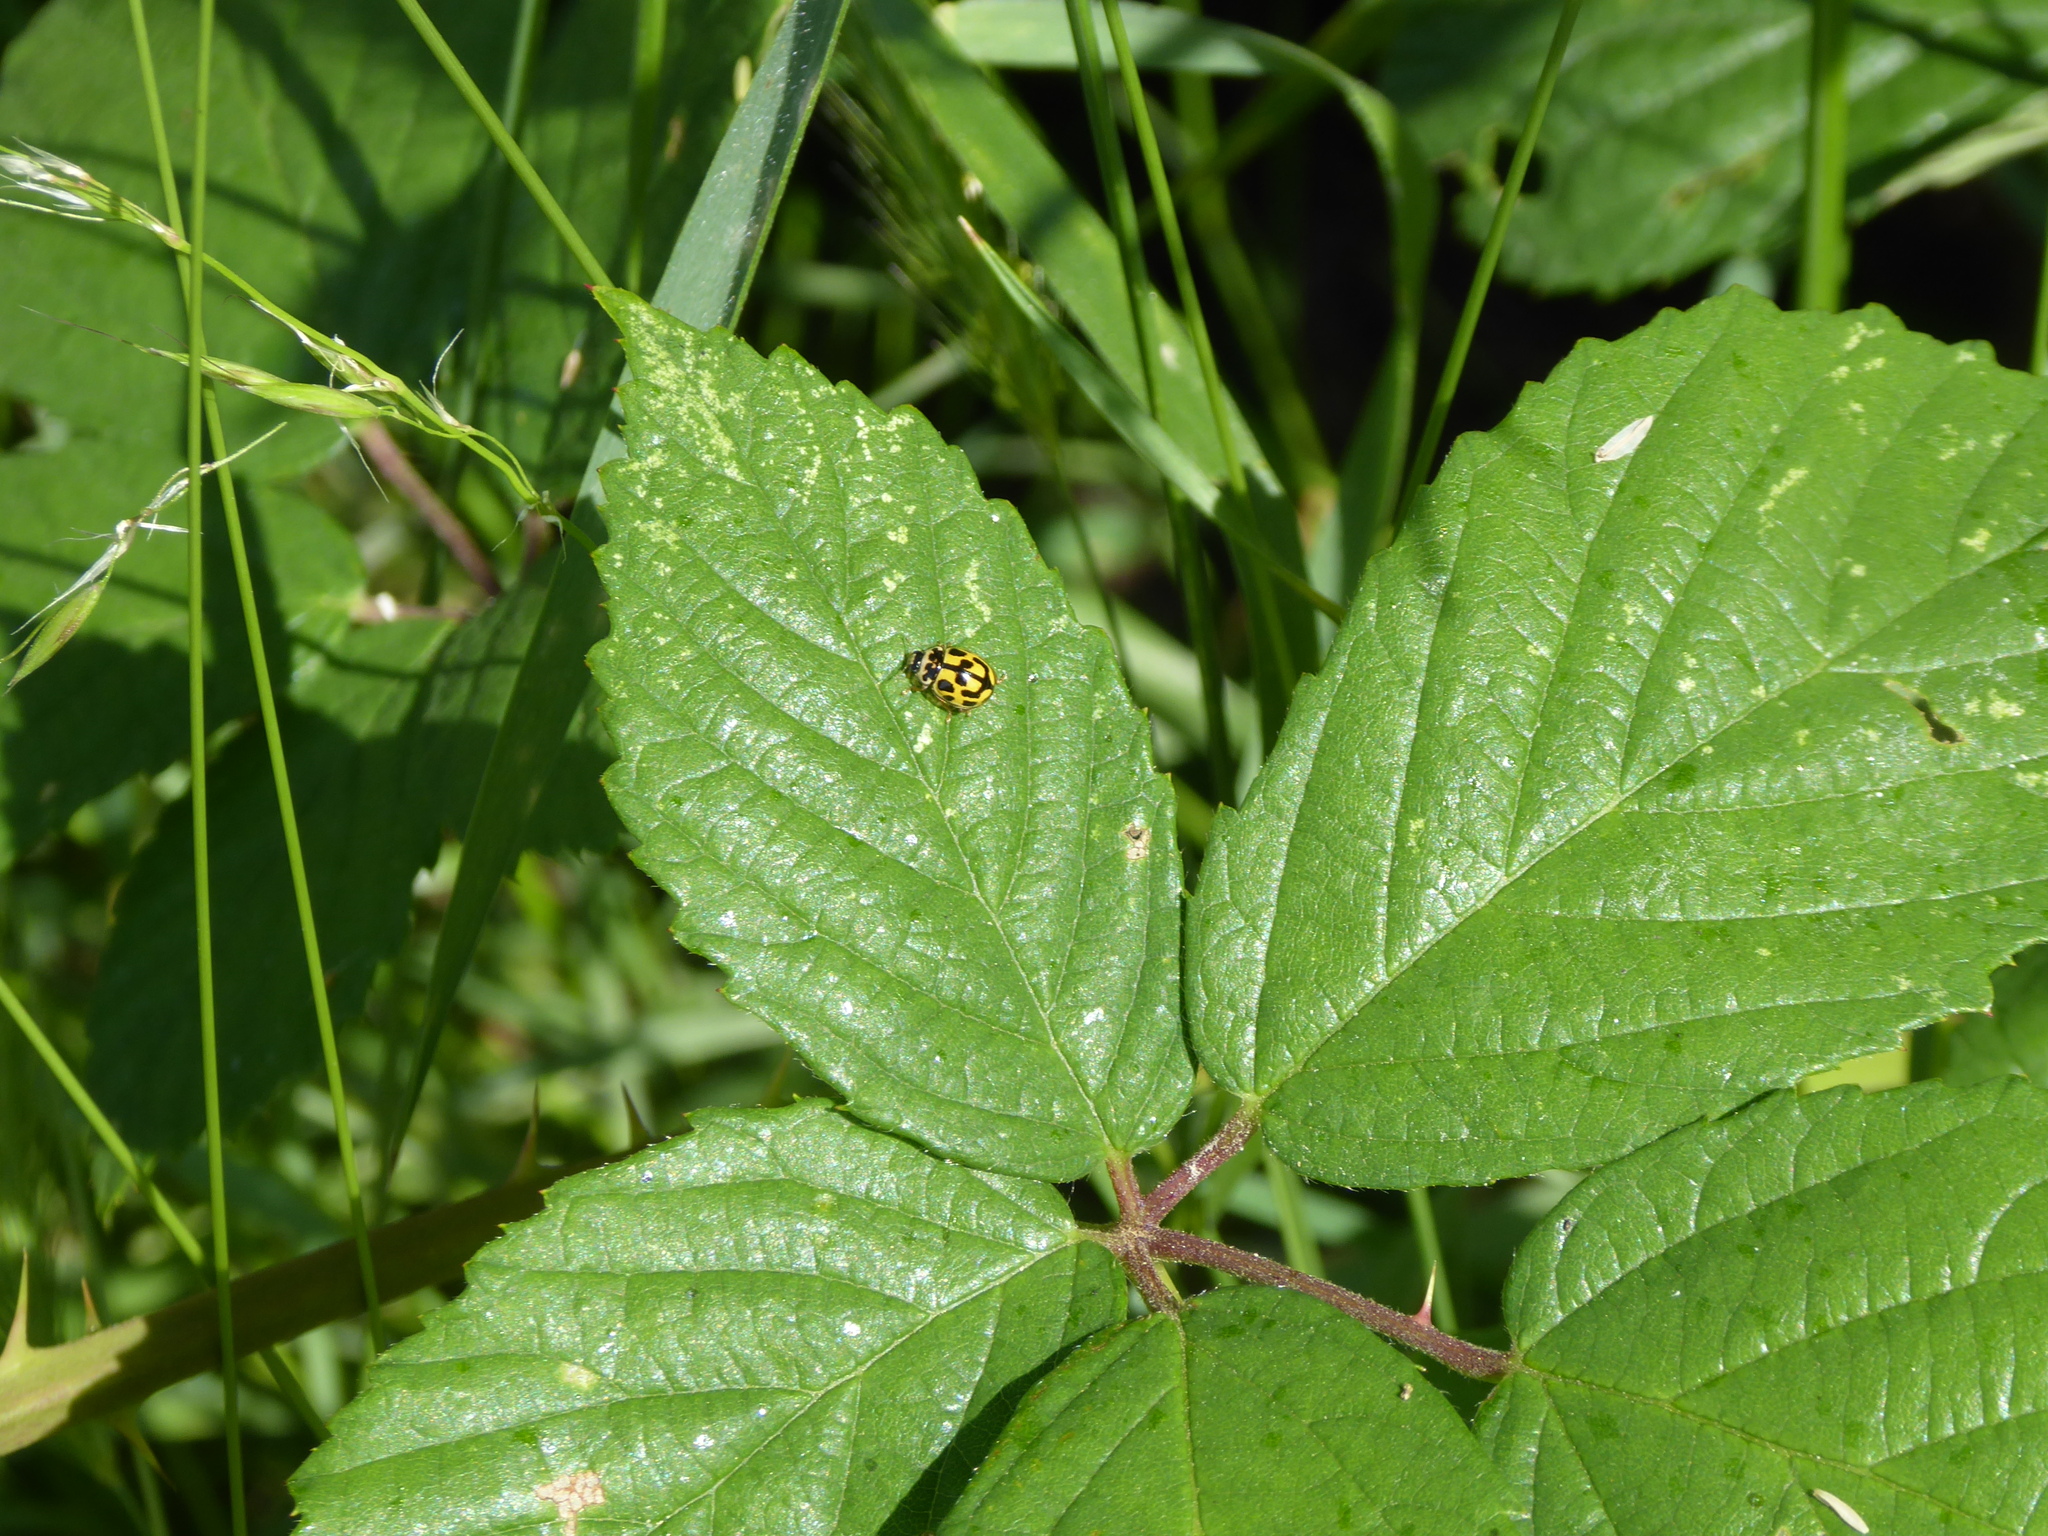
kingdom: Animalia
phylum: Arthropoda
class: Insecta
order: Coleoptera
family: Coccinellidae
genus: Propylaea
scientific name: Propylaea quatuordecimpunctata
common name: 14-spotted ladybird beetle
